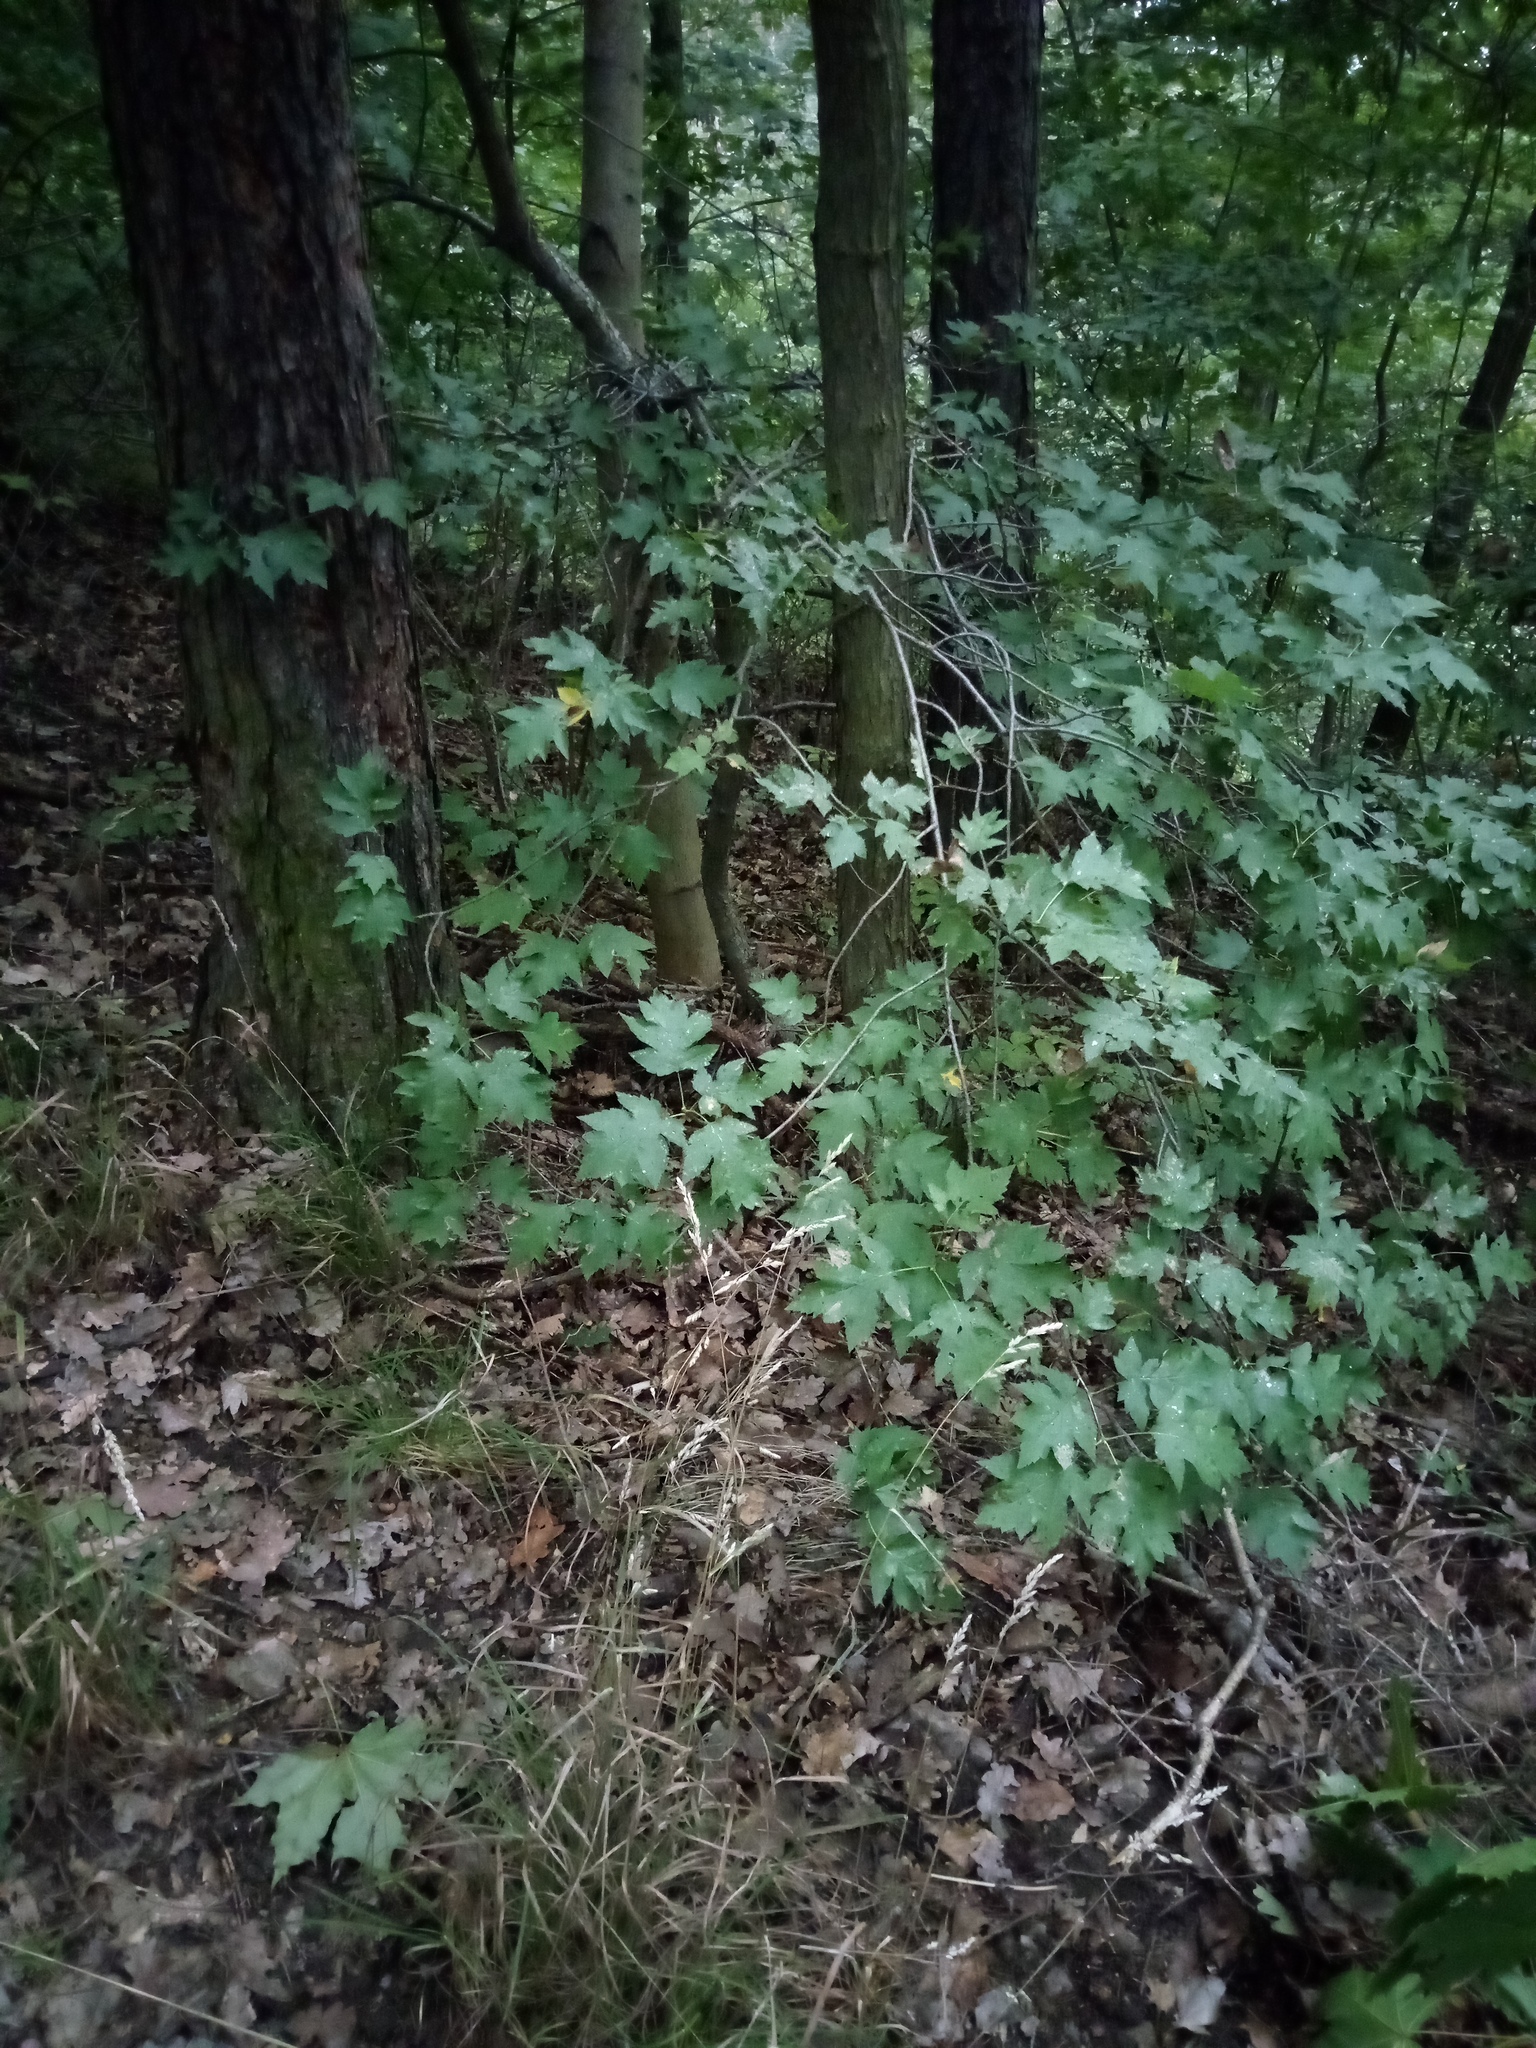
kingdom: Plantae
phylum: Tracheophyta
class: Magnoliopsida
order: Rosales
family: Rosaceae
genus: Torminalis
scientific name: Torminalis glaberrima
